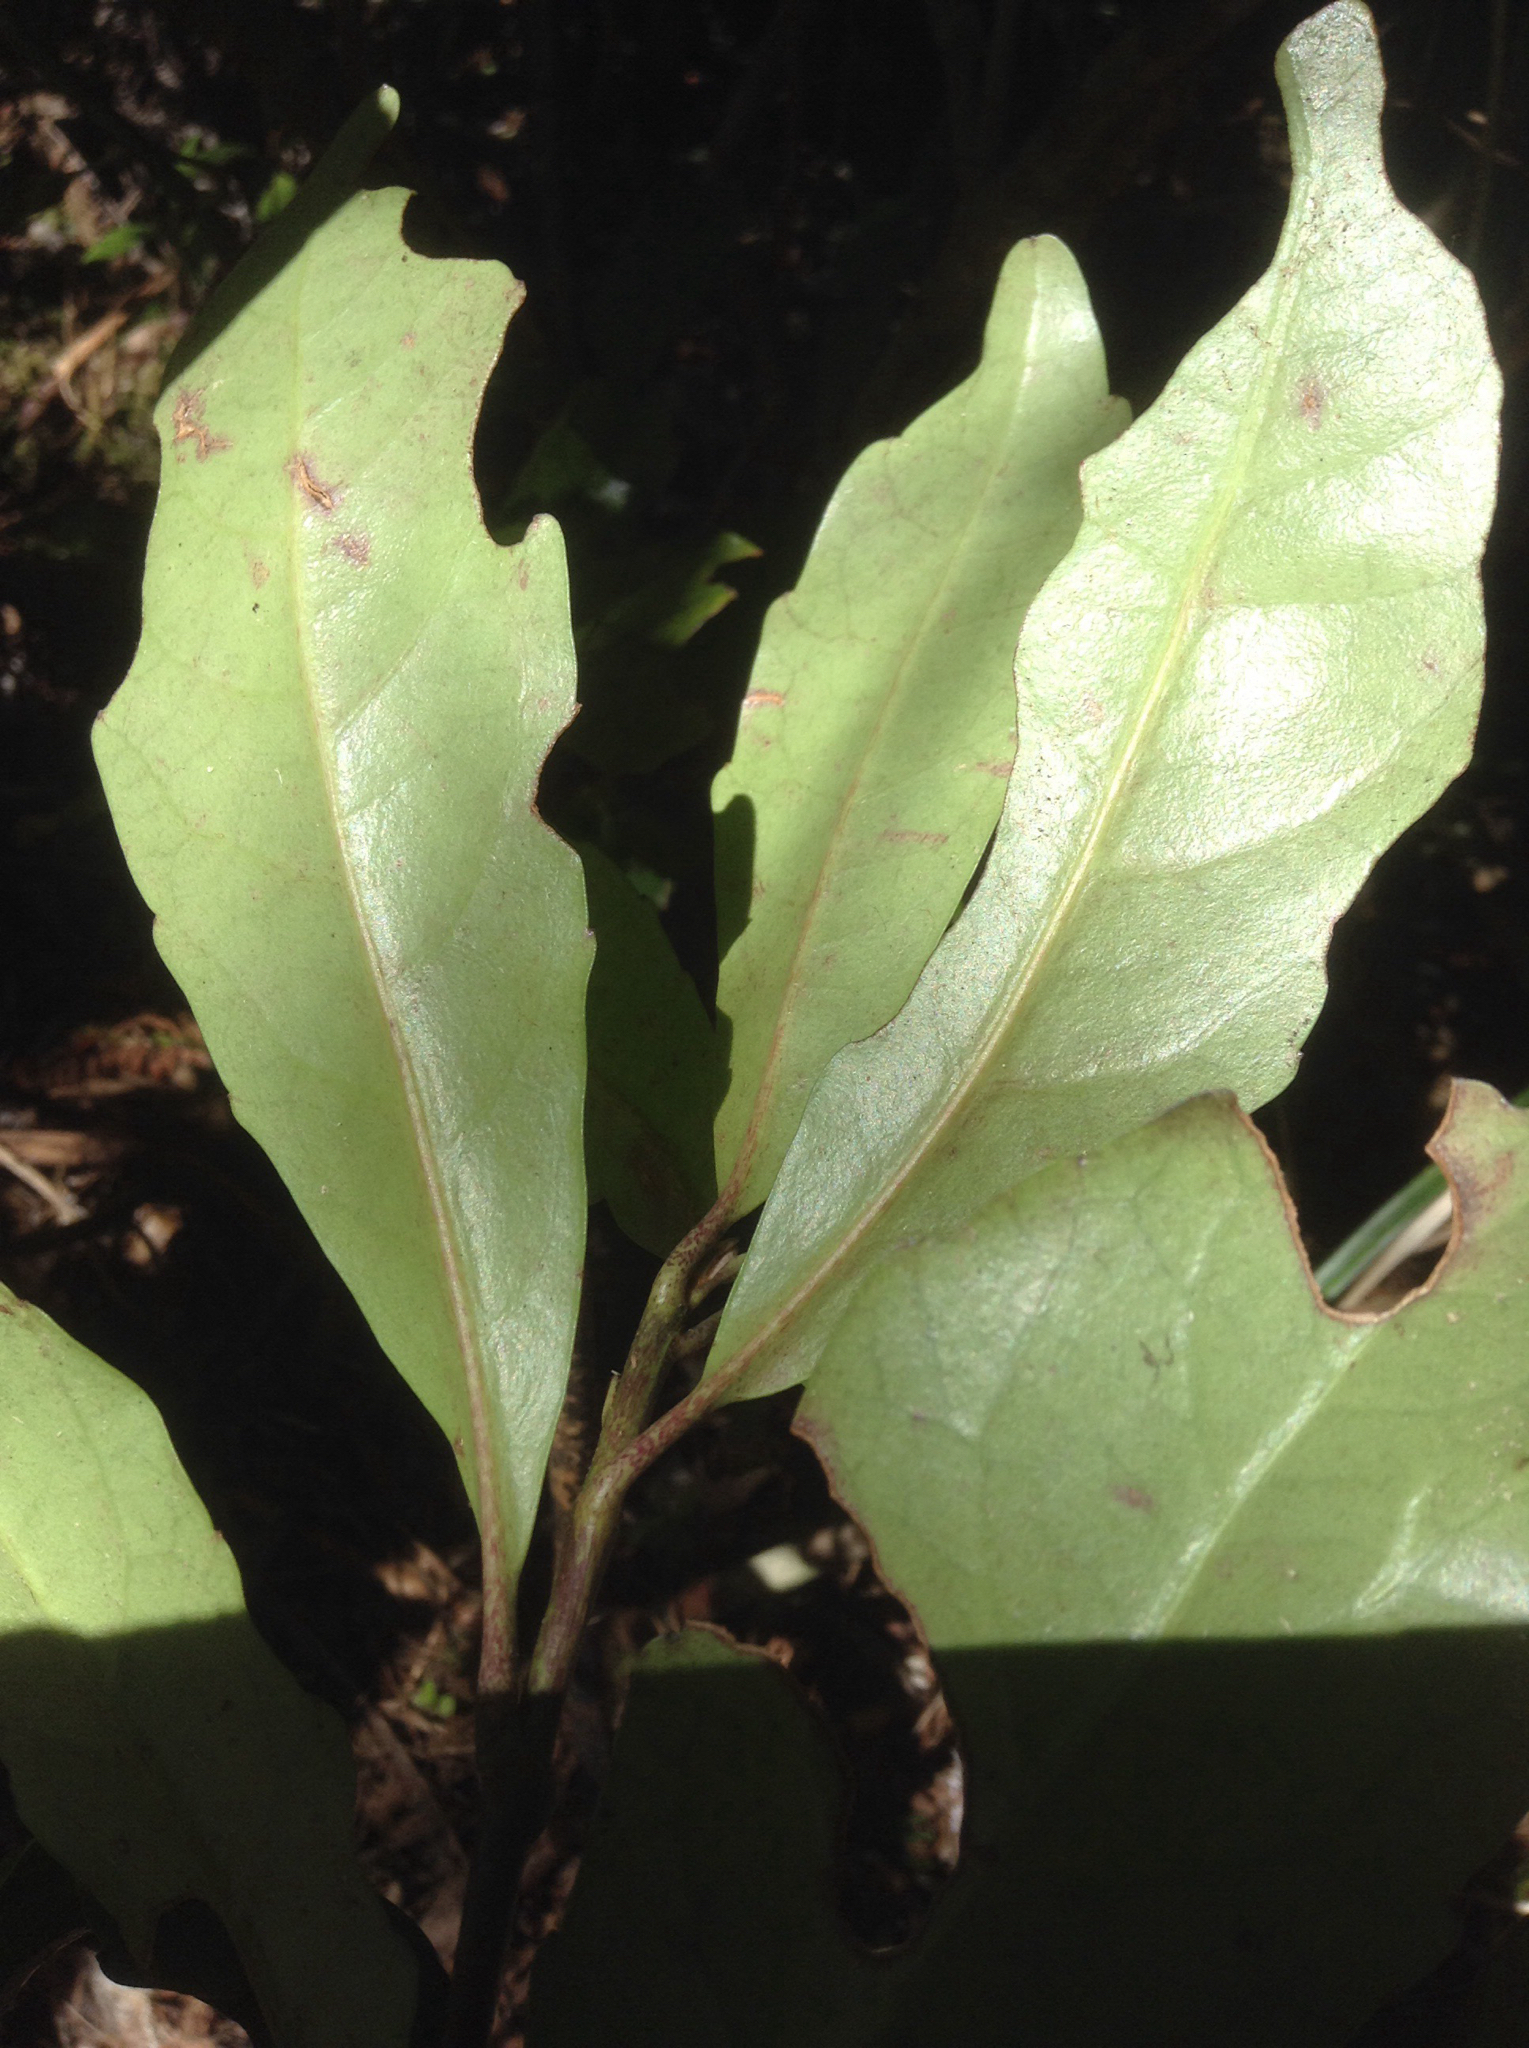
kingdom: Plantae
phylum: Tracheophyta
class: Magnoliopsida
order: Asterales
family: Alseuosmiaceae
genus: Alseuosmia
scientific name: Alseuosmia macrophylla
